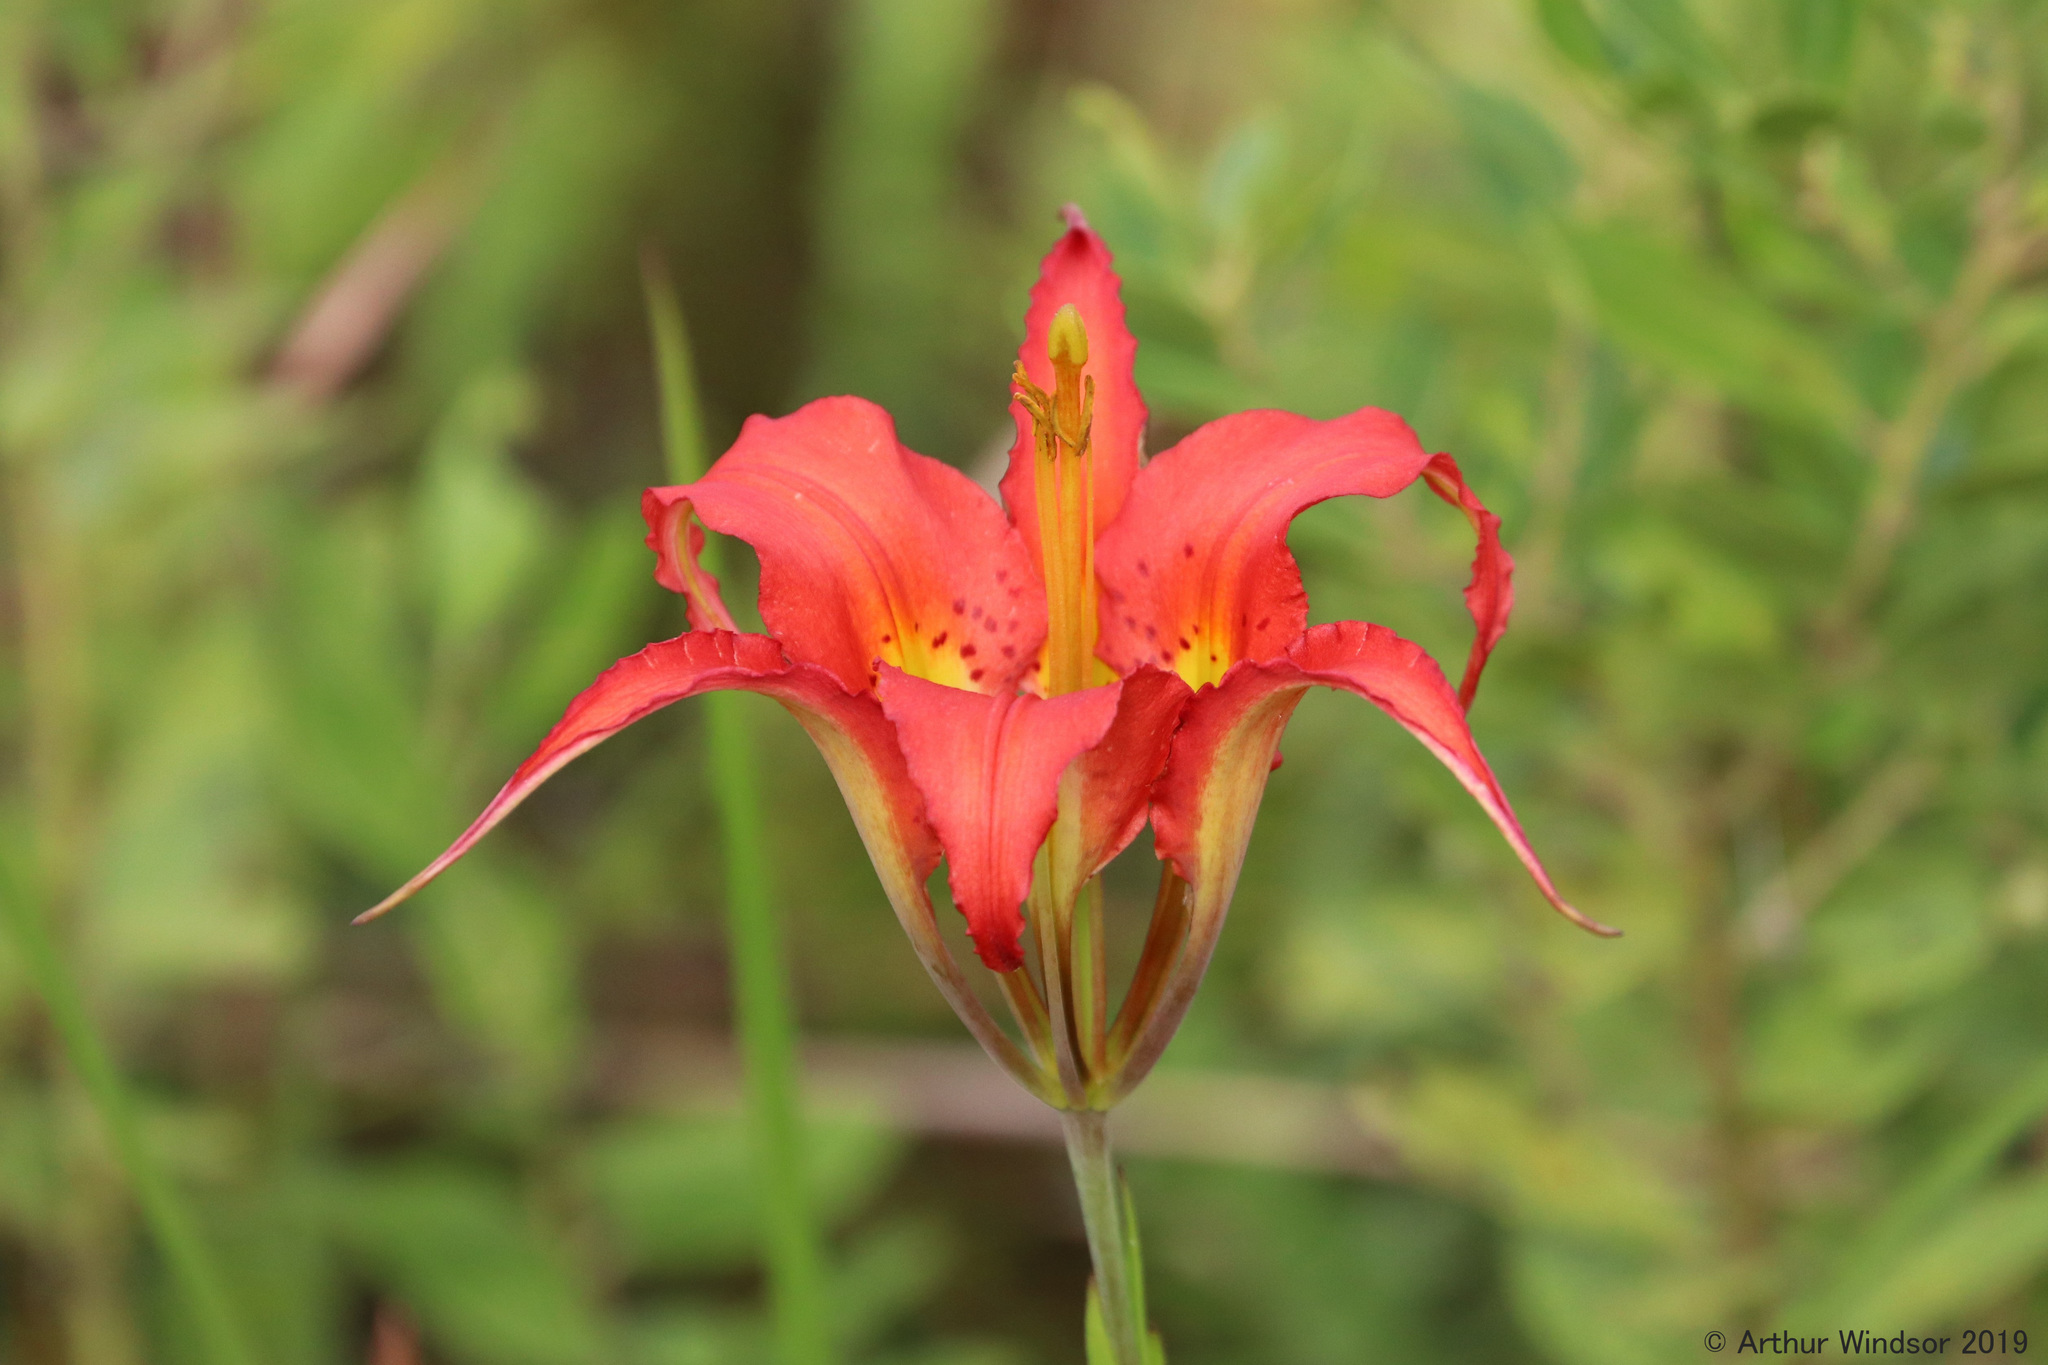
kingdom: Plantae
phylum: Tracheophyta
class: Liliopsida
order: Liliales
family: Liliaceae
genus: Lilium
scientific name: Lilium catesbaei
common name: Catesby's lily
